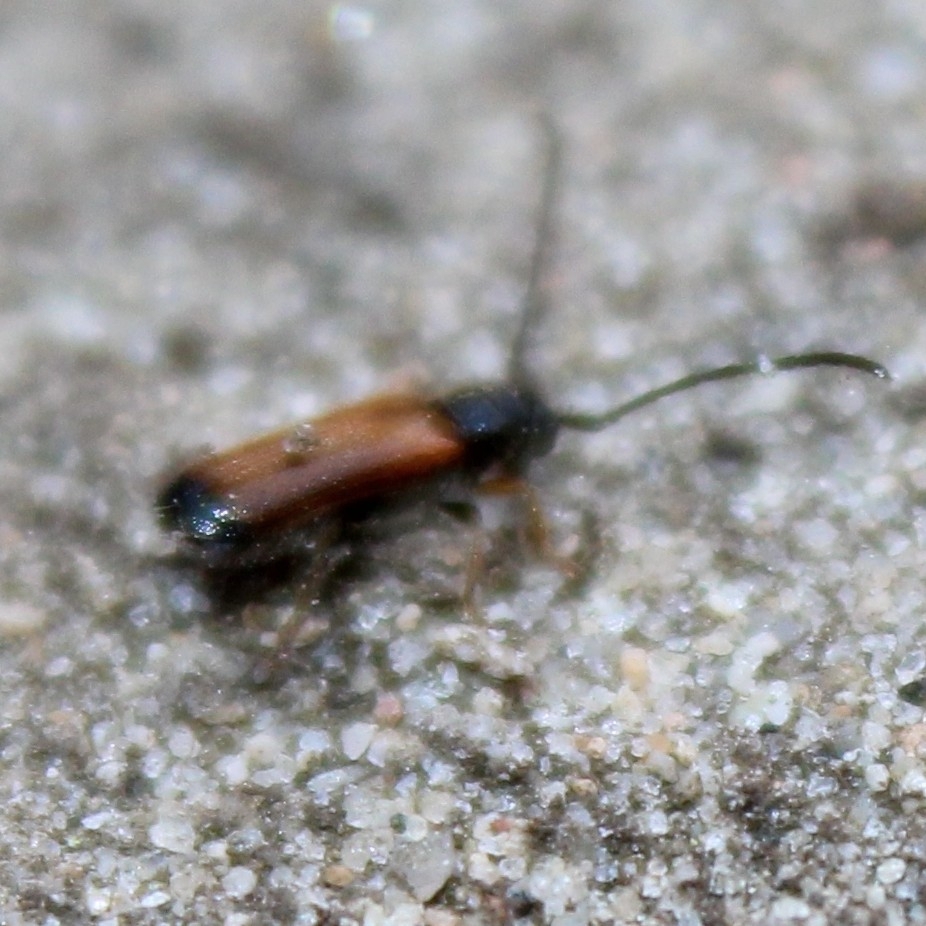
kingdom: Animalia
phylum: Arthropoda
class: Insecta
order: Coleoptera
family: Cerambycidae
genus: Tetrops
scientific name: Tetrops praeustus
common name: Plum beetle
